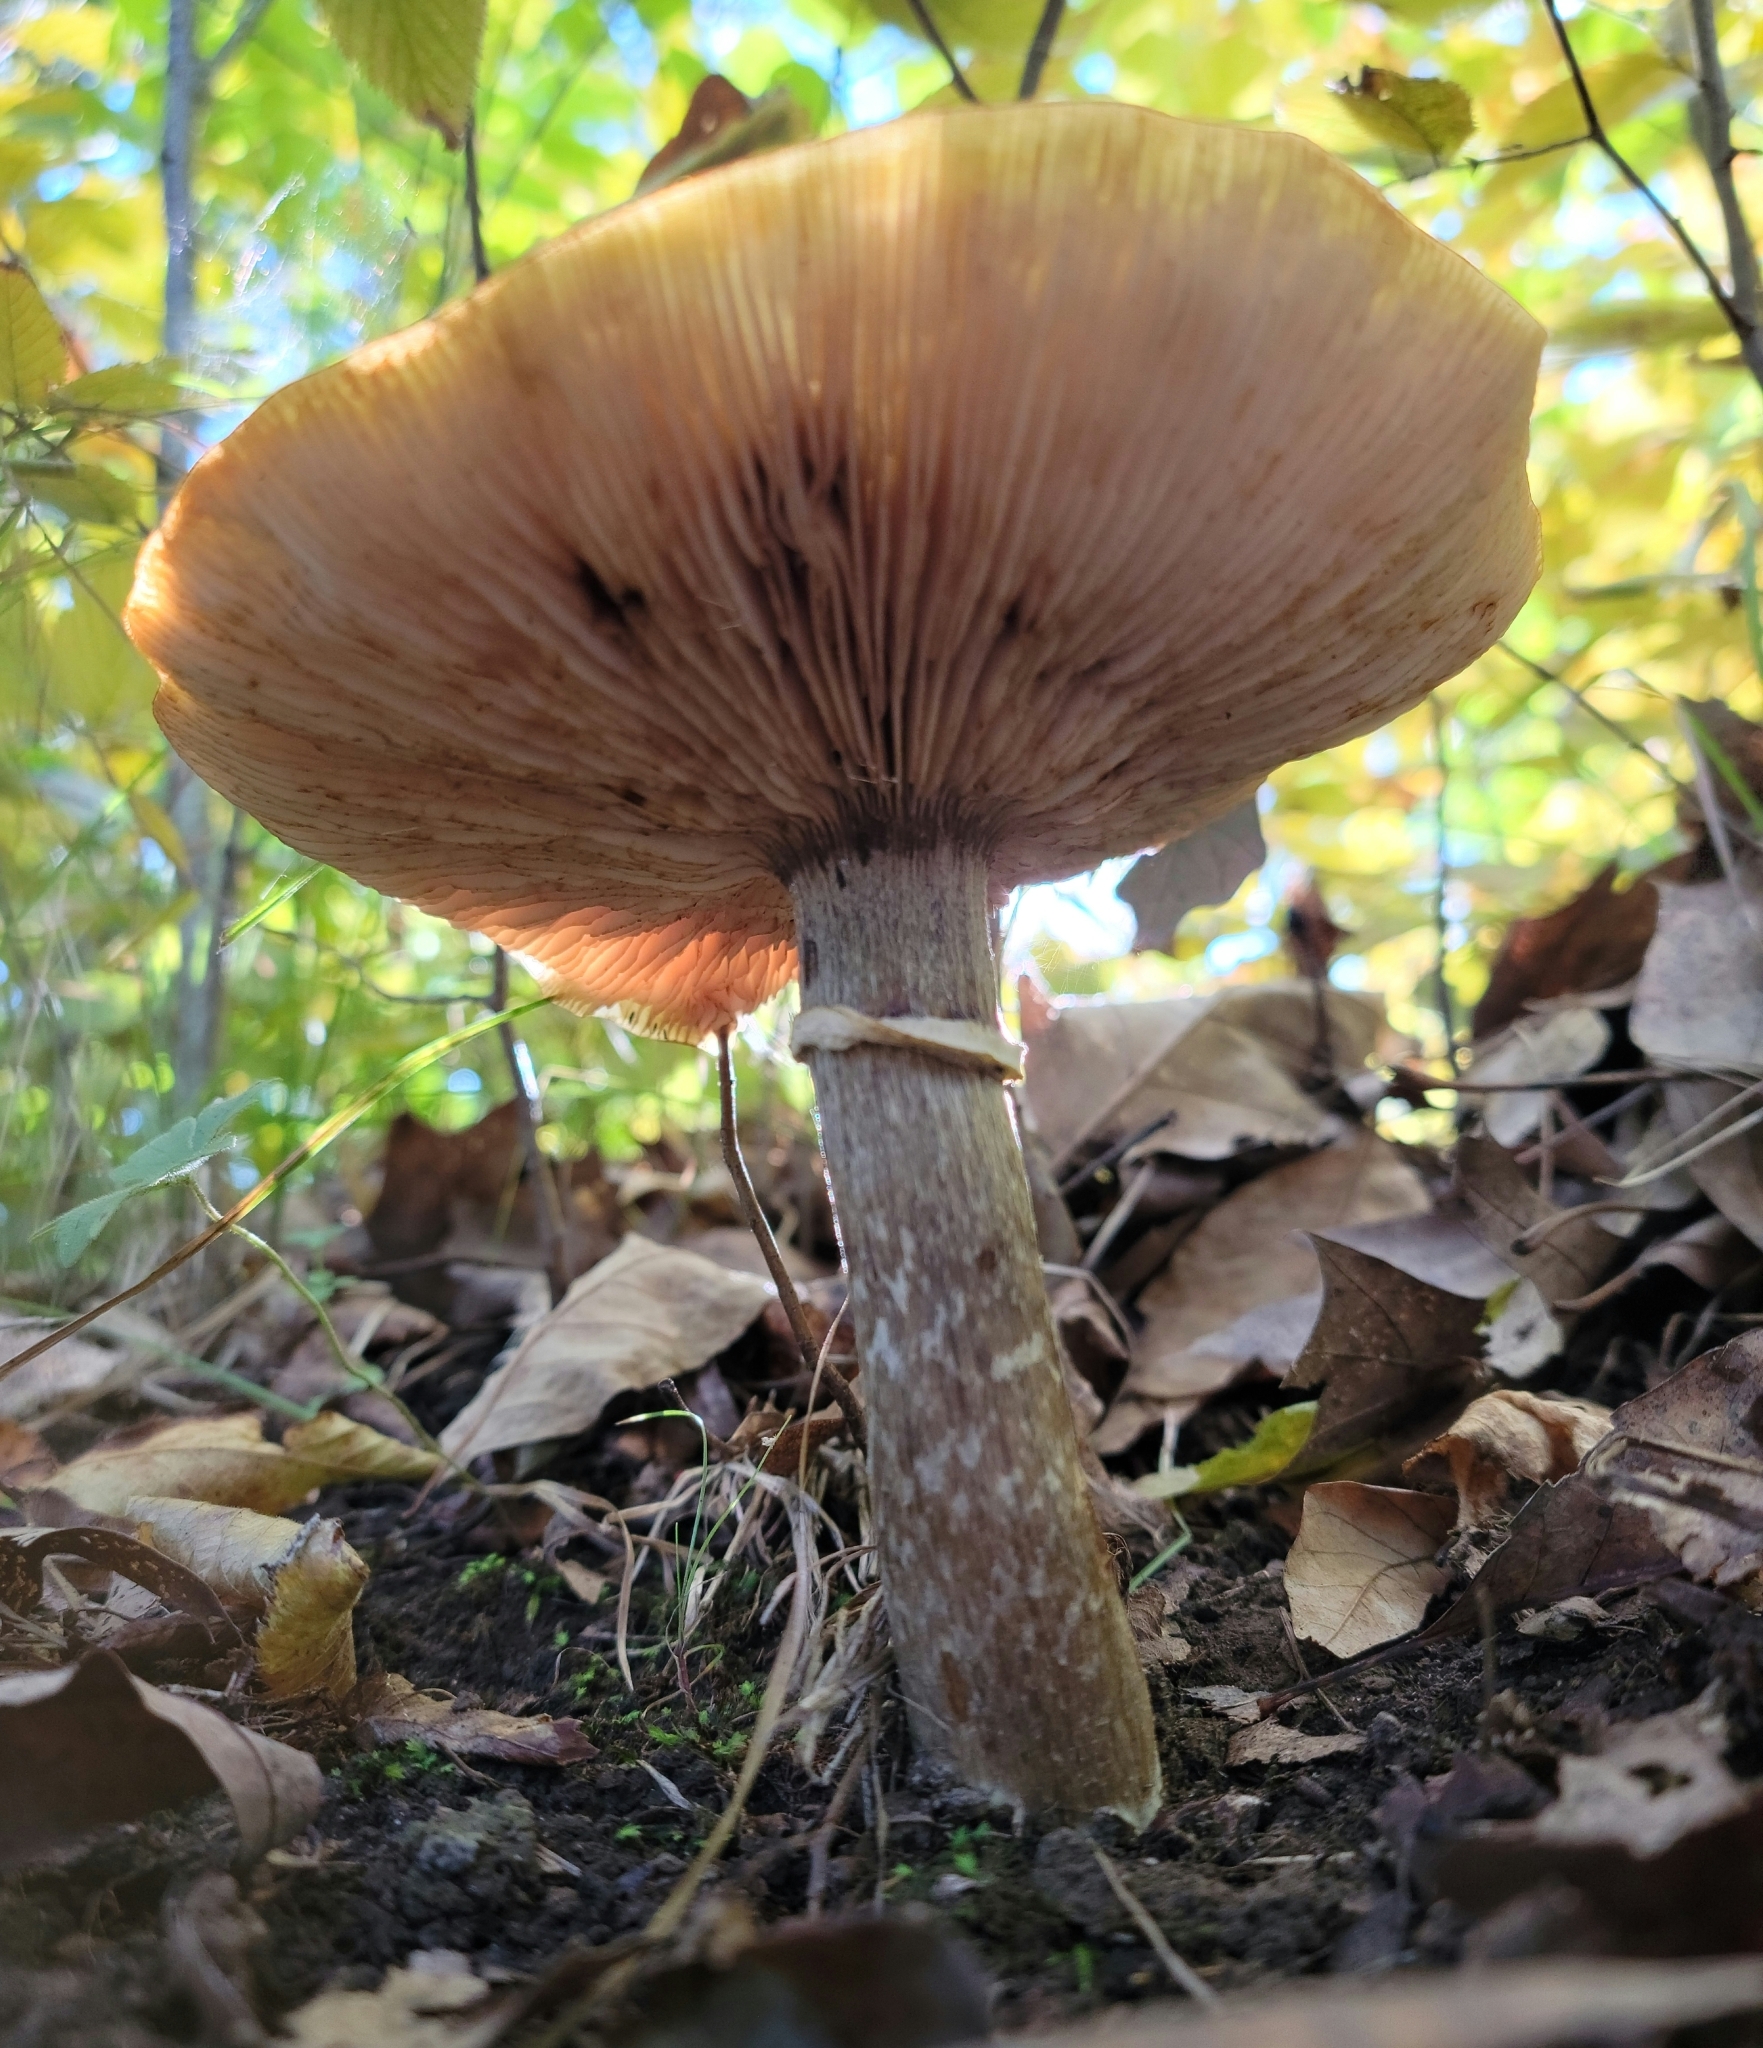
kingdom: Fungi
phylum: Basidiomycota
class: Agaricomycetes
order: Agaricales
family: Physalacriaceae
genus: Armillaria
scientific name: Armillaria mellea
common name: Honey fungus
